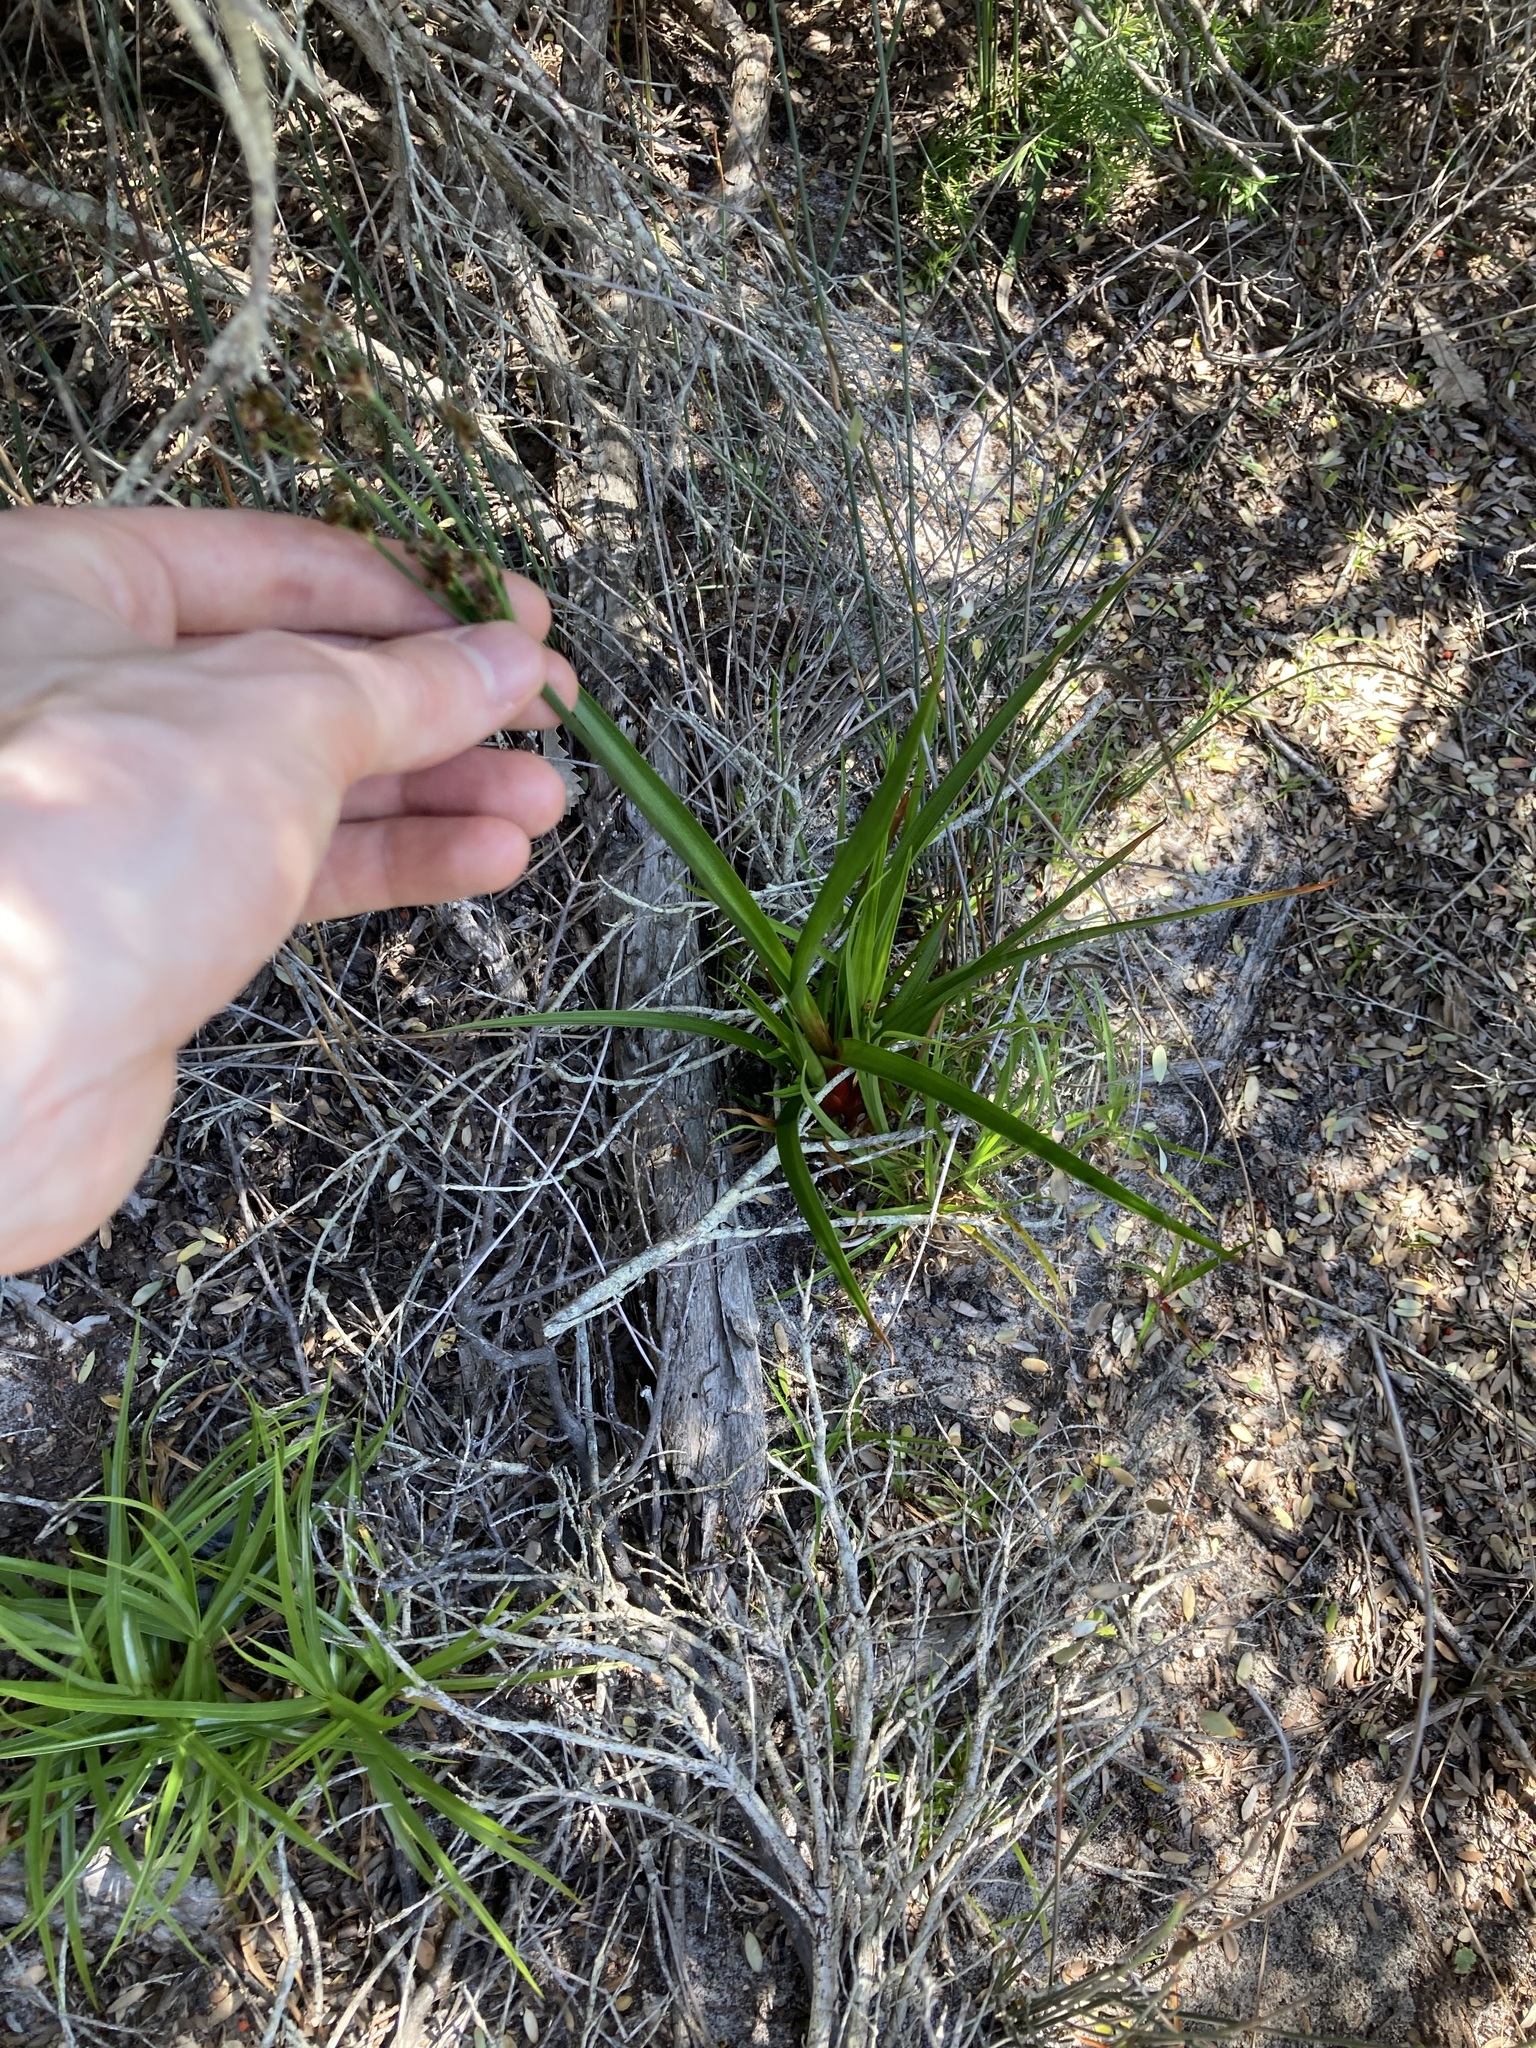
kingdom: Plantae
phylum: Tracheophyta
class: Liliopsida
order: Poales
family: Juncaceae
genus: Juncus
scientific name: Juncus planifolius
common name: Broadleaf rush
